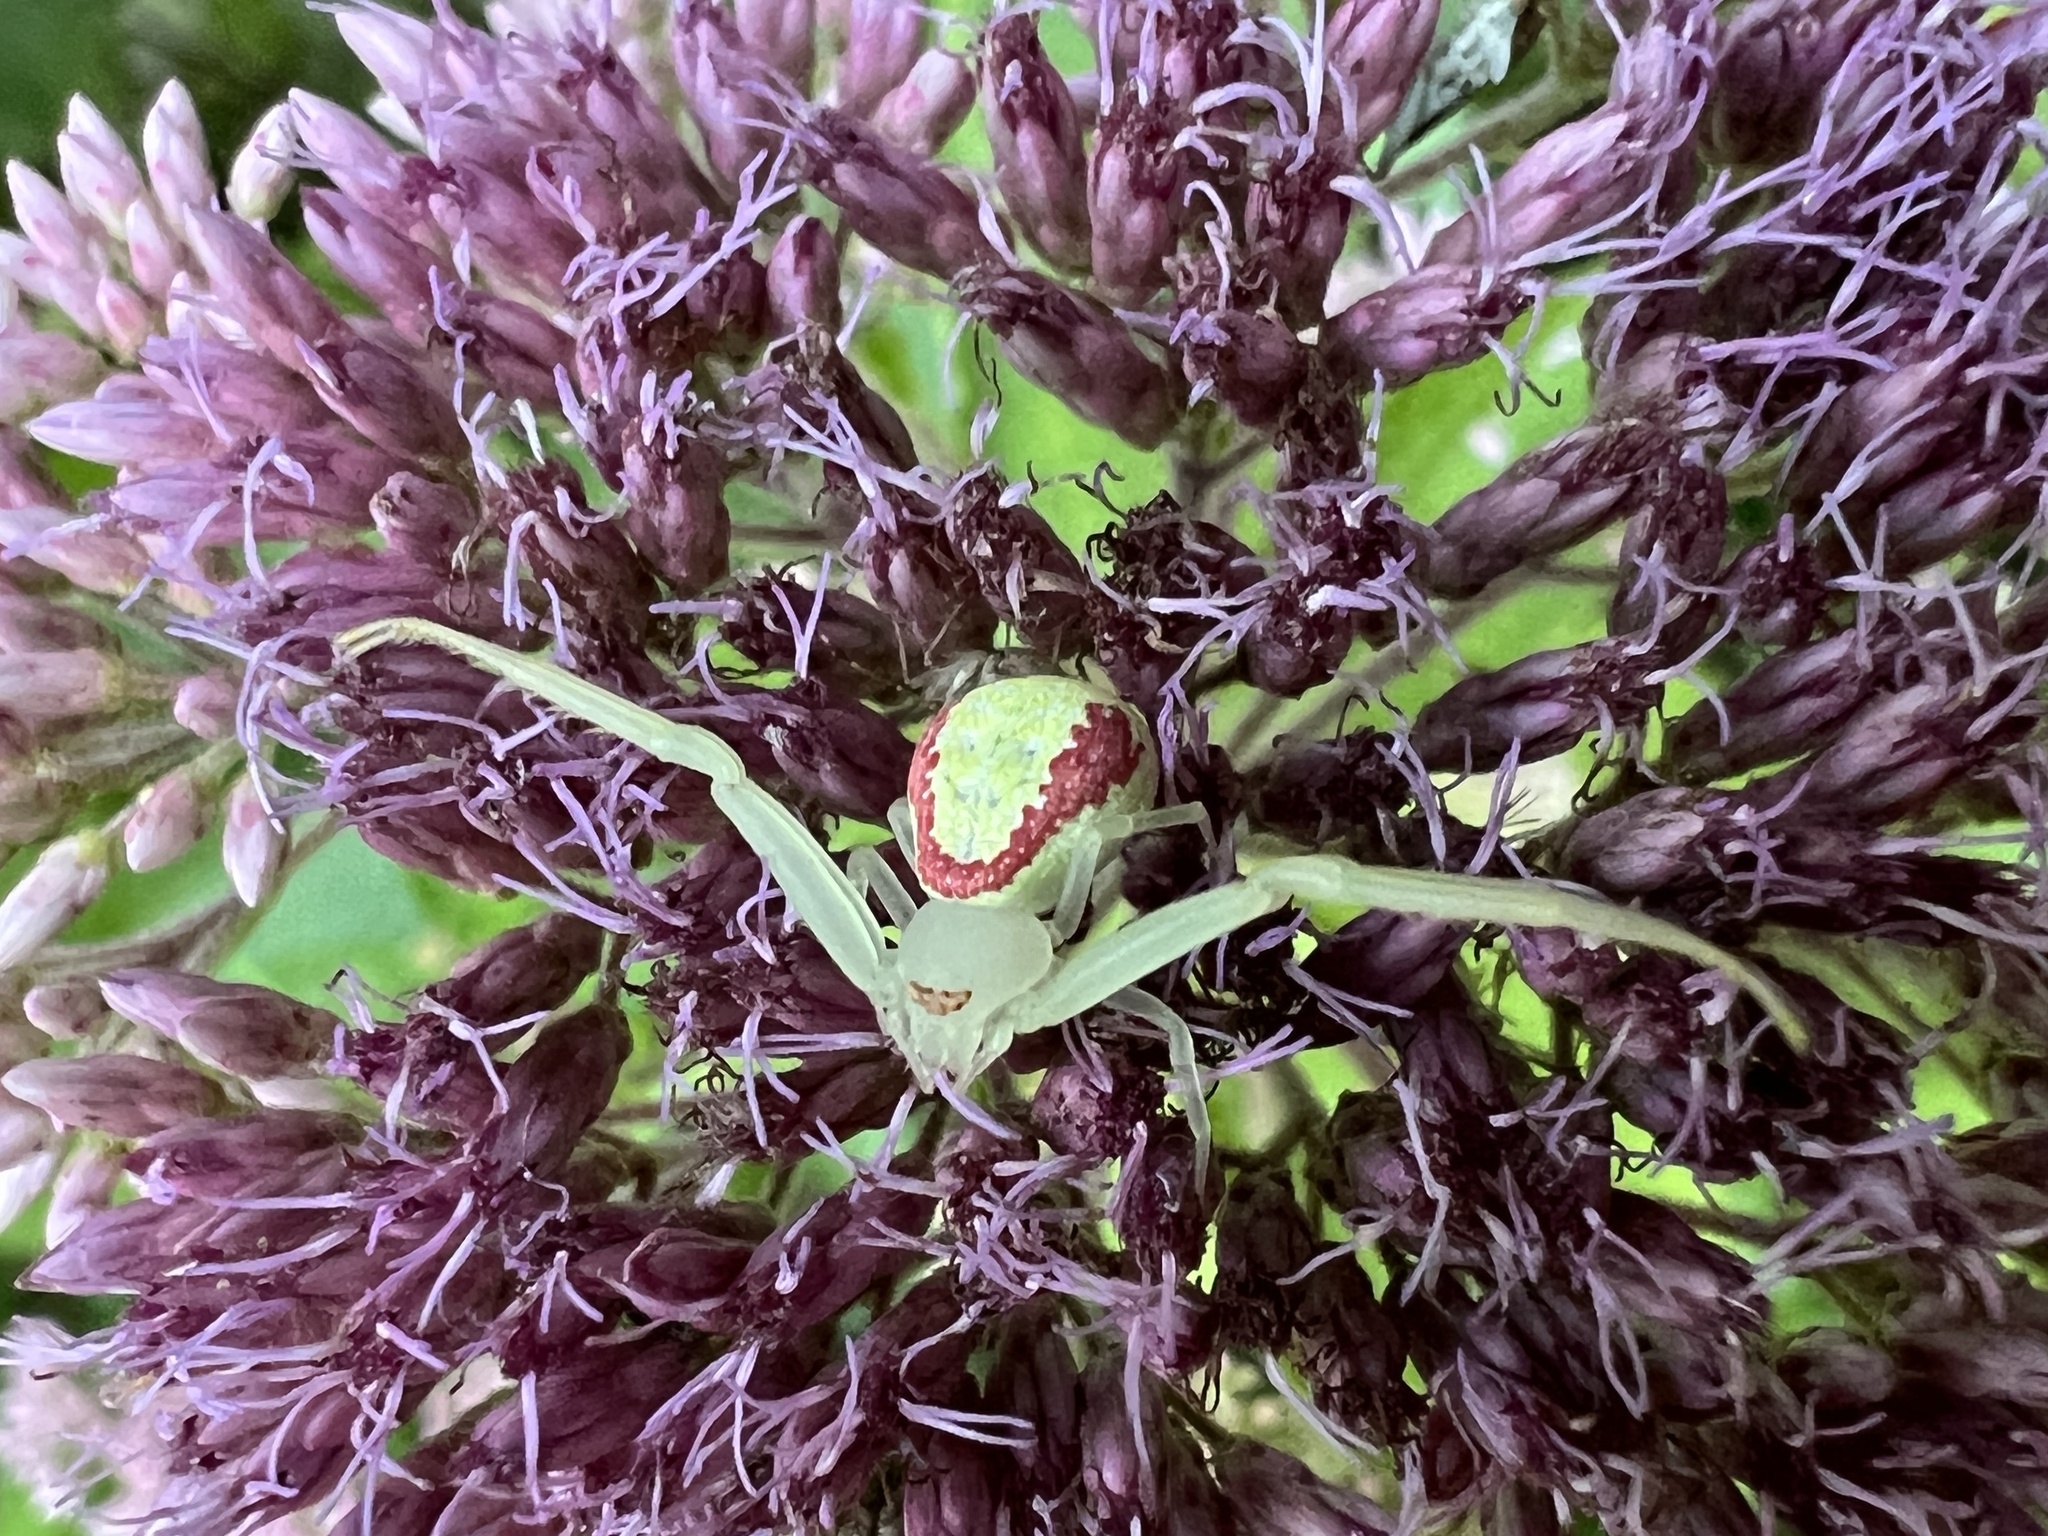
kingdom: Animalia
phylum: Arthropoda
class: Arachnida
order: Araneae
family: Thomisidae
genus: Misumessus
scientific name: Misumessus oblongus
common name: American green crab spider
